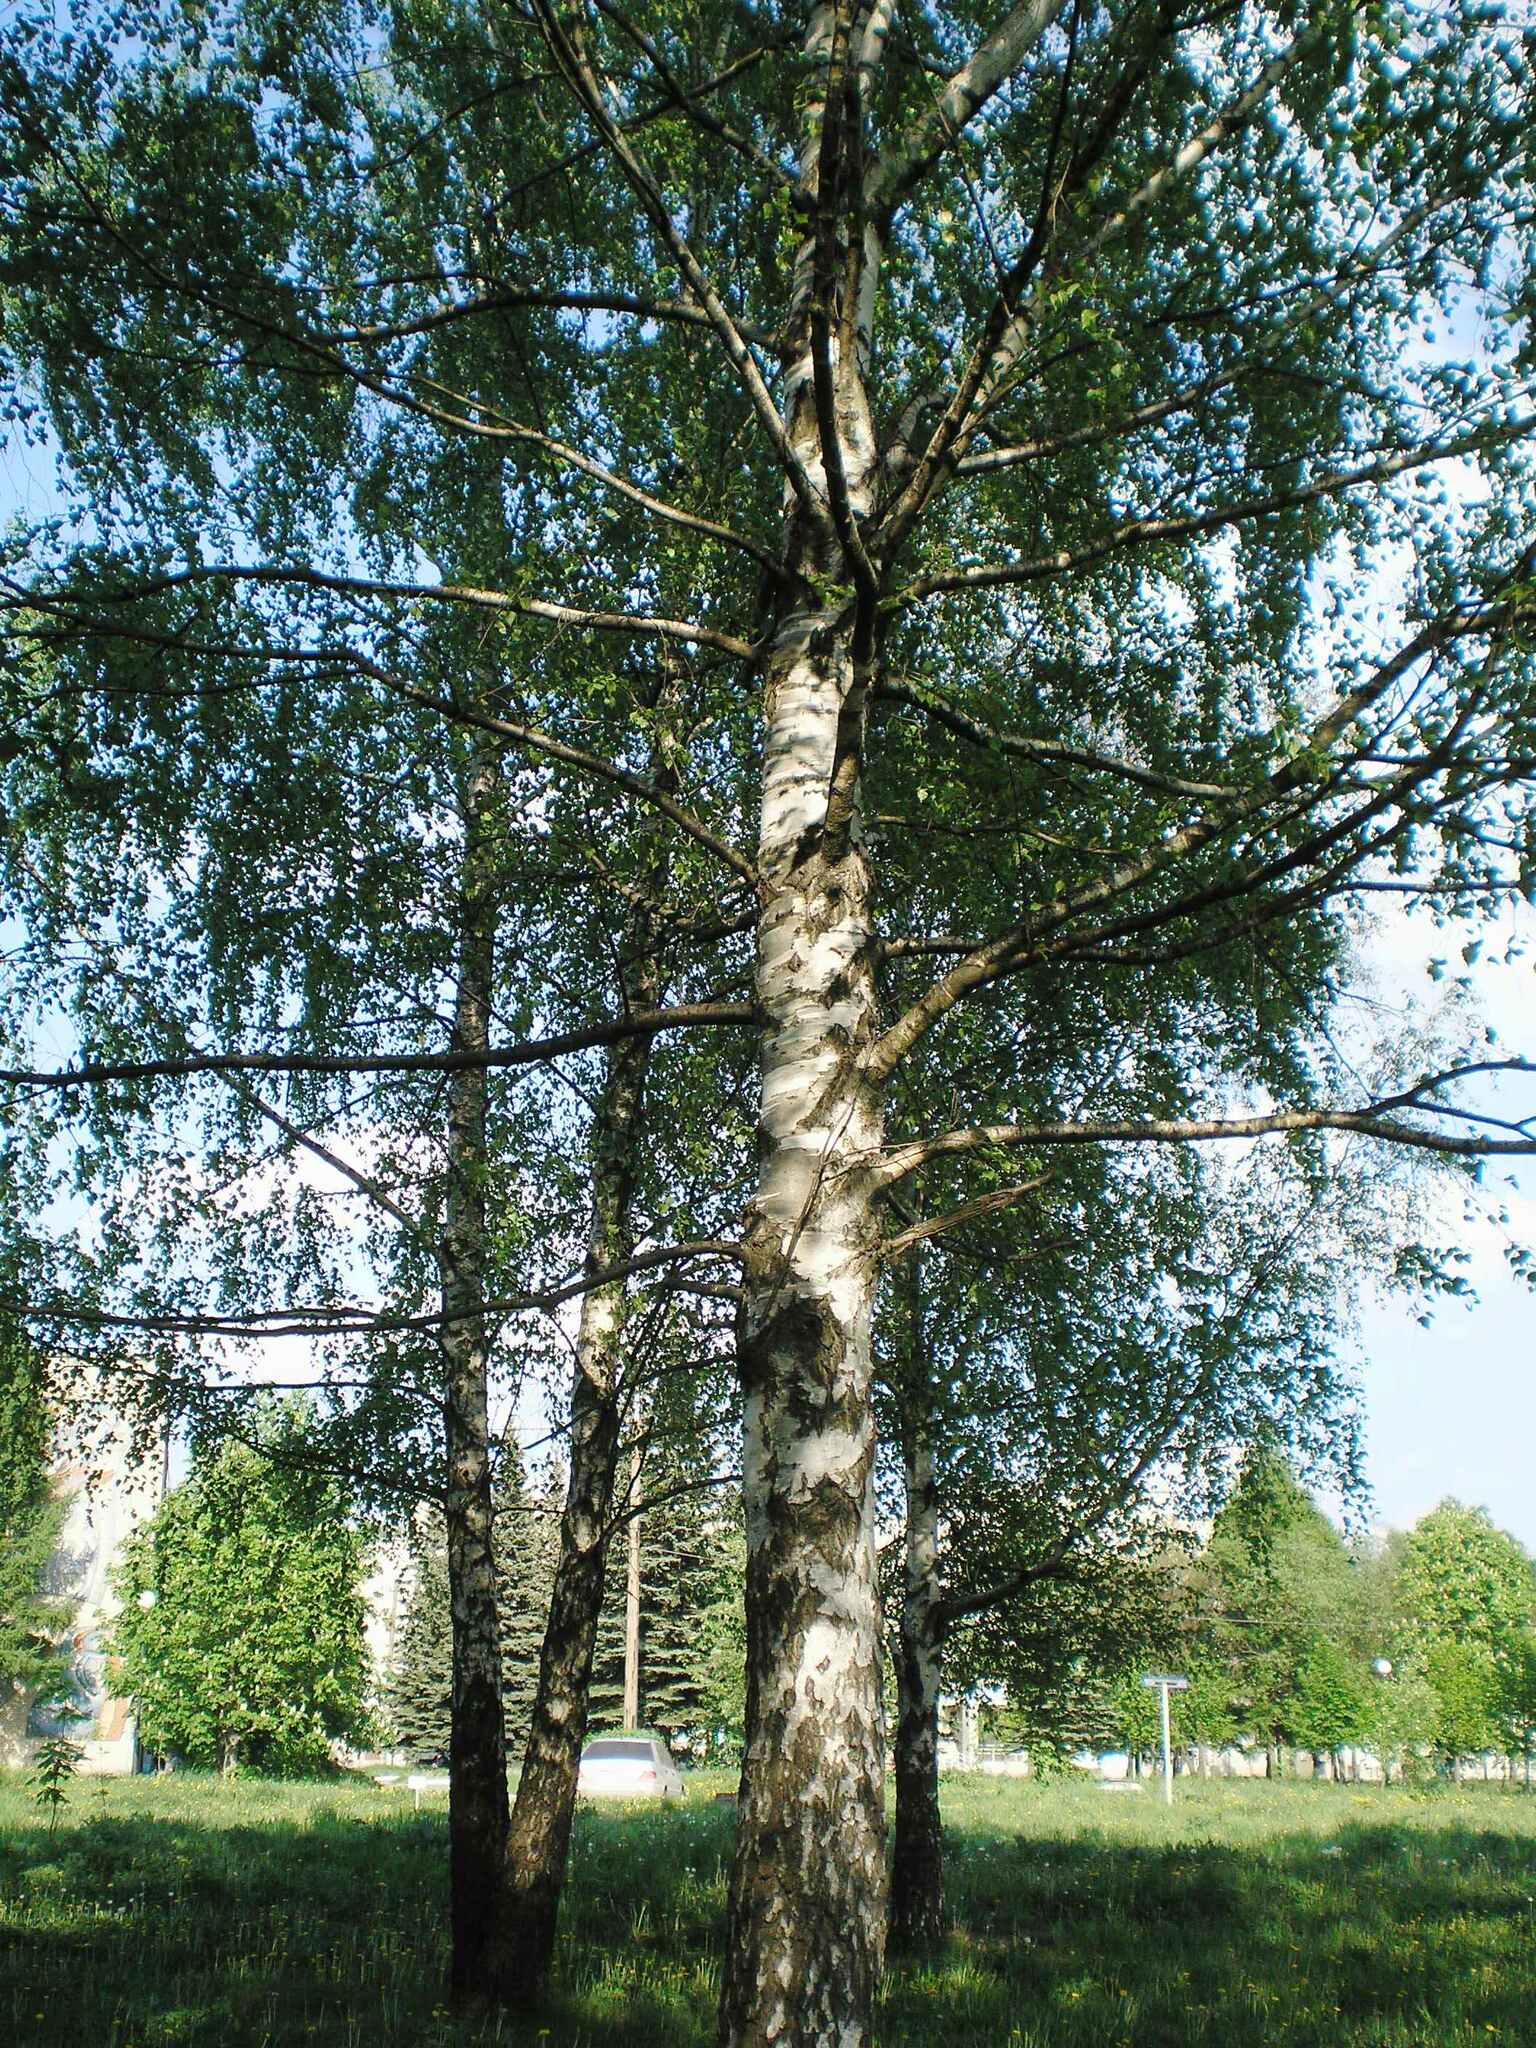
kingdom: Plantae
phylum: Tracheophyta
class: Magnoliopsida
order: Fagales
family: Betulaceae
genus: Betula
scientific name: Betula pendula
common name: Silver birch
